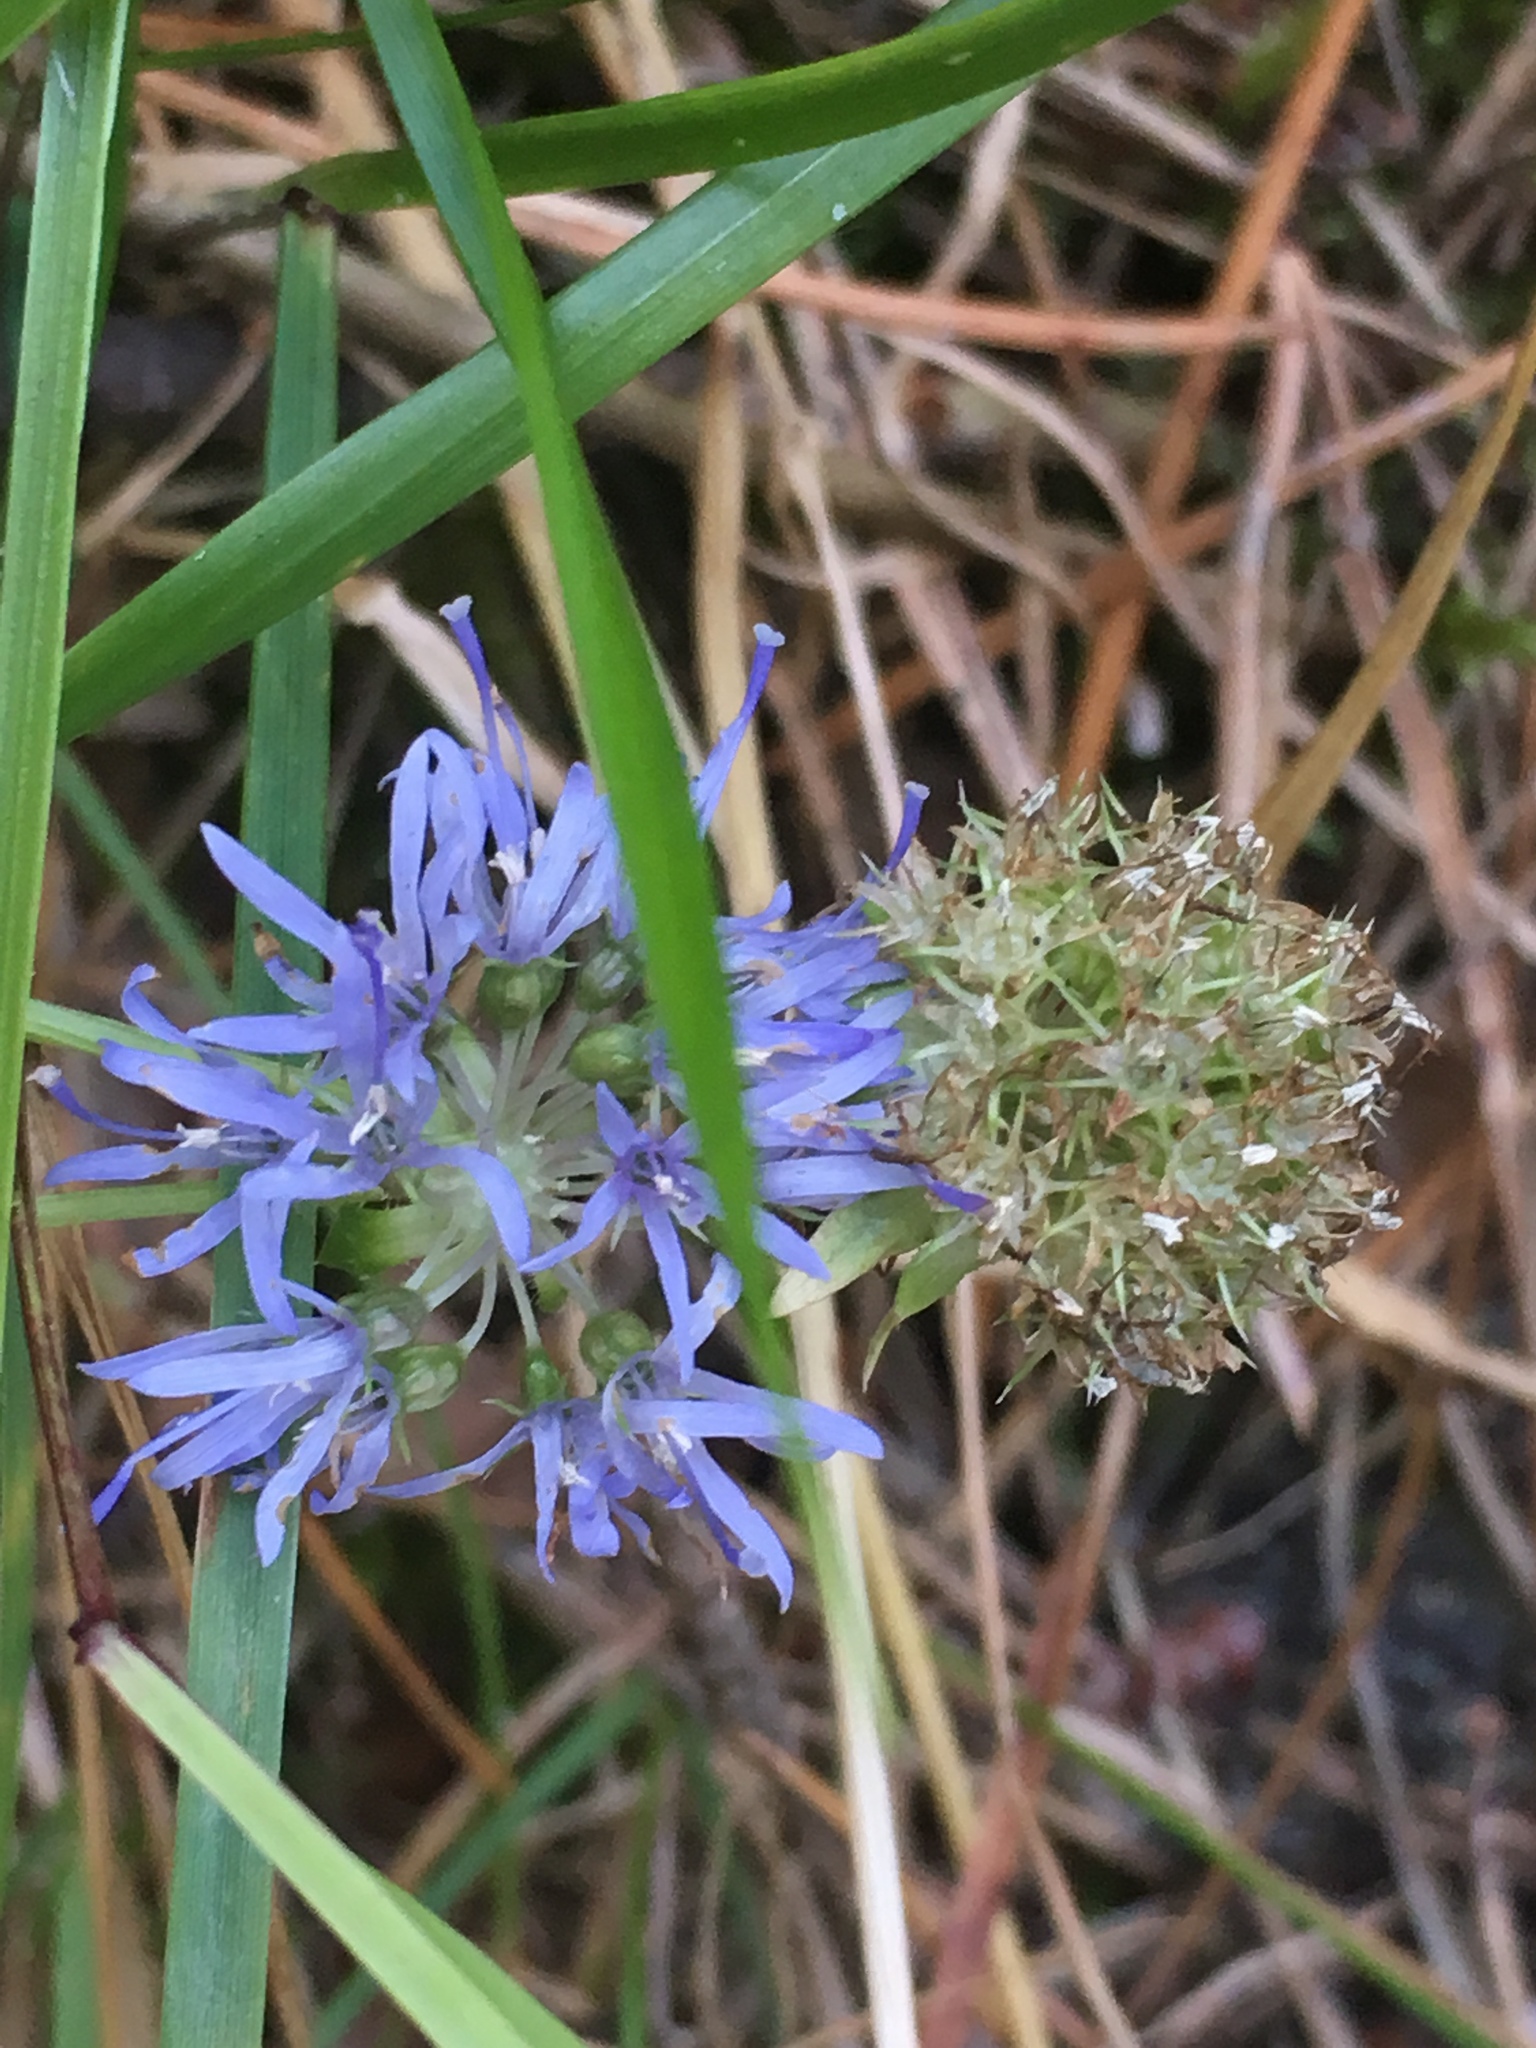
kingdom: Plantae
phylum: Tracheophyta
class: Magnoliopsida
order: Asterales
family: Campanulaceae
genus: Jasione
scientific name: Jasione montana
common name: Sheep's-bit
